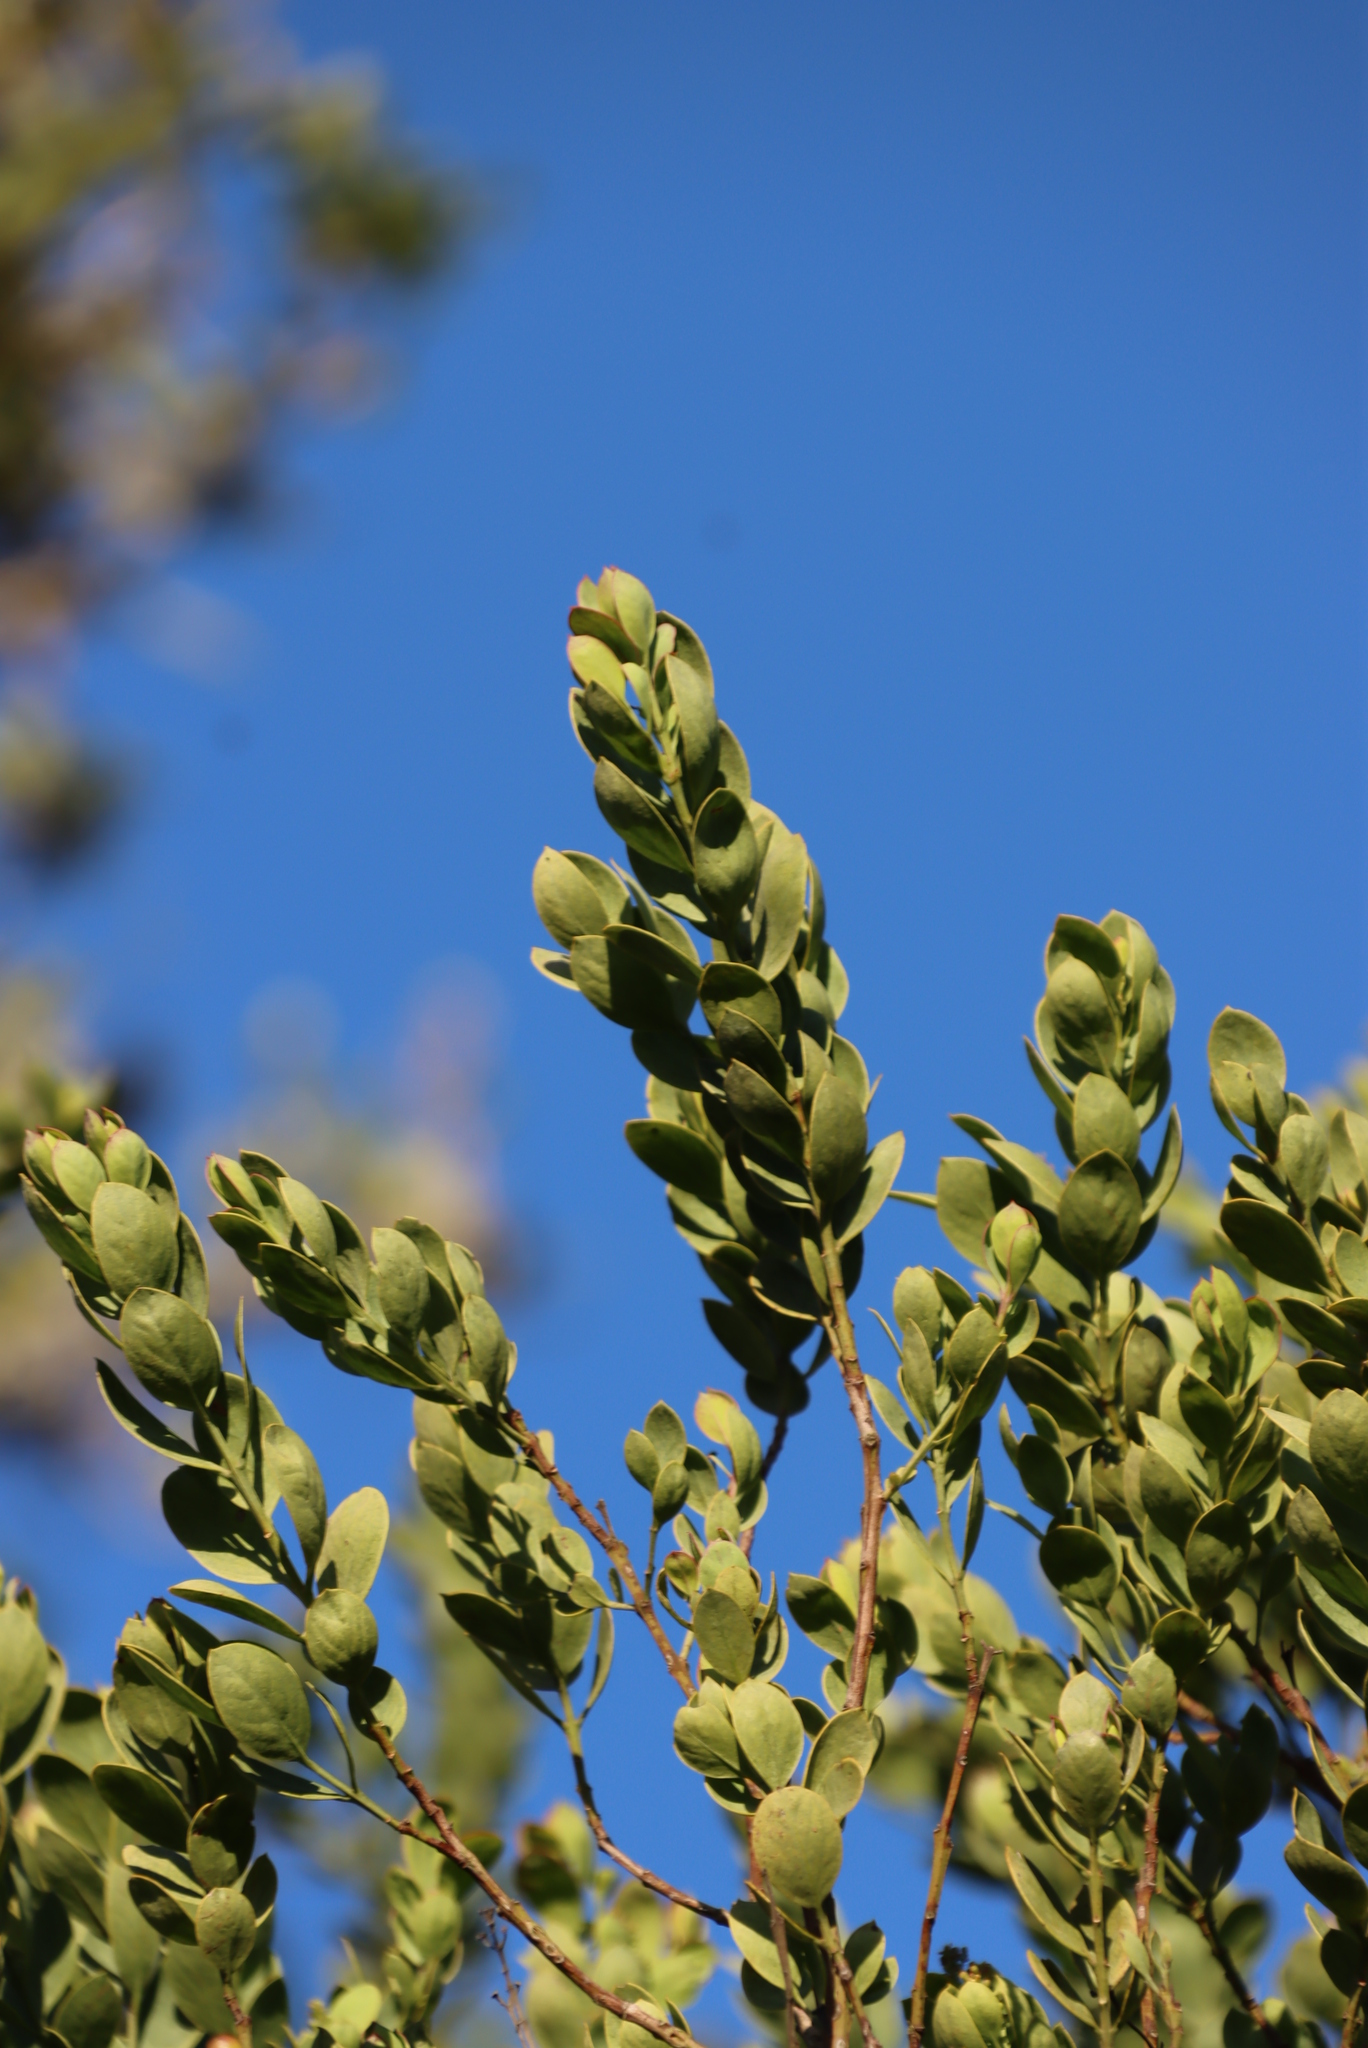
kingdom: Plantae
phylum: Tracheophyta
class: Magnoliopsida
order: Santalales
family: Santalaceae
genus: Osyris
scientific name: Osyris compressa
